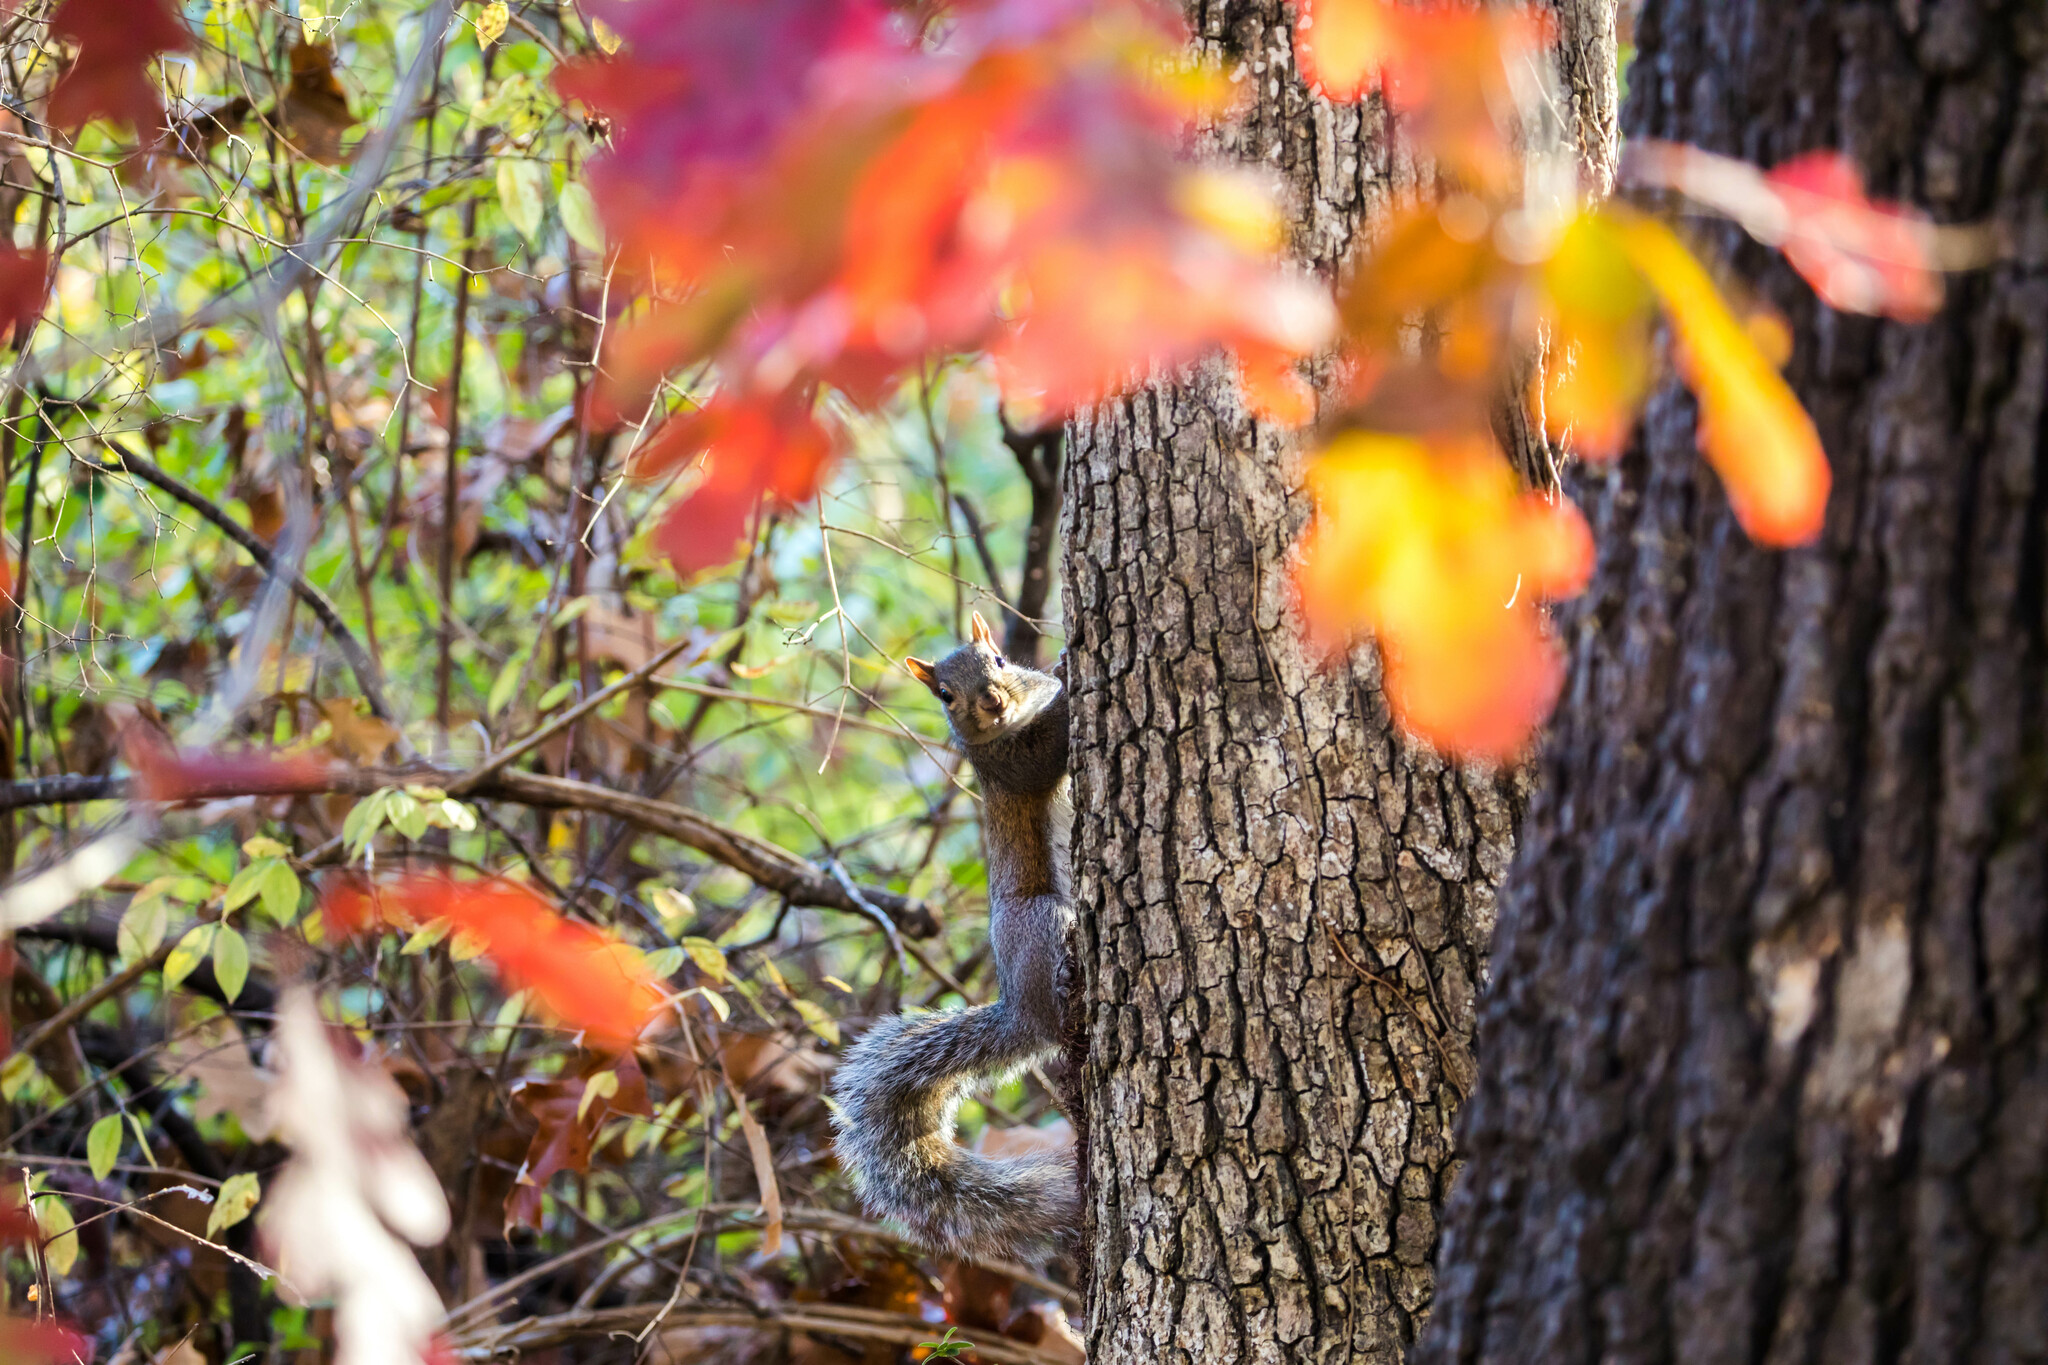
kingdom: Animalia
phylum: Chordata
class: Mammalia
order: Rodentia
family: Sciuridae
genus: Sciurus
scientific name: Sciurus carolinensis
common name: Eastern gray squirrel
